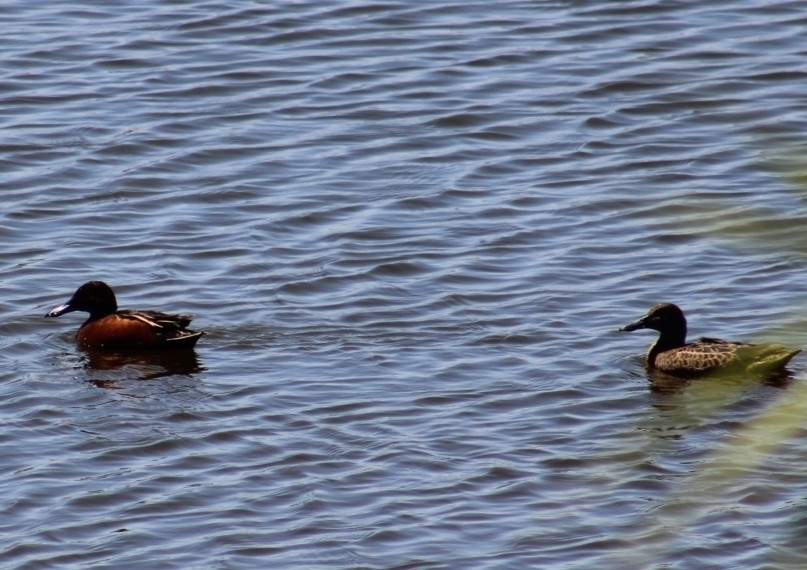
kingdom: Animalia
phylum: Chordata
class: Aves
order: Anseriformes
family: Anatidae
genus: Spatula
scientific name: Spatula cyanoptera
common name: Cinnamon teal
